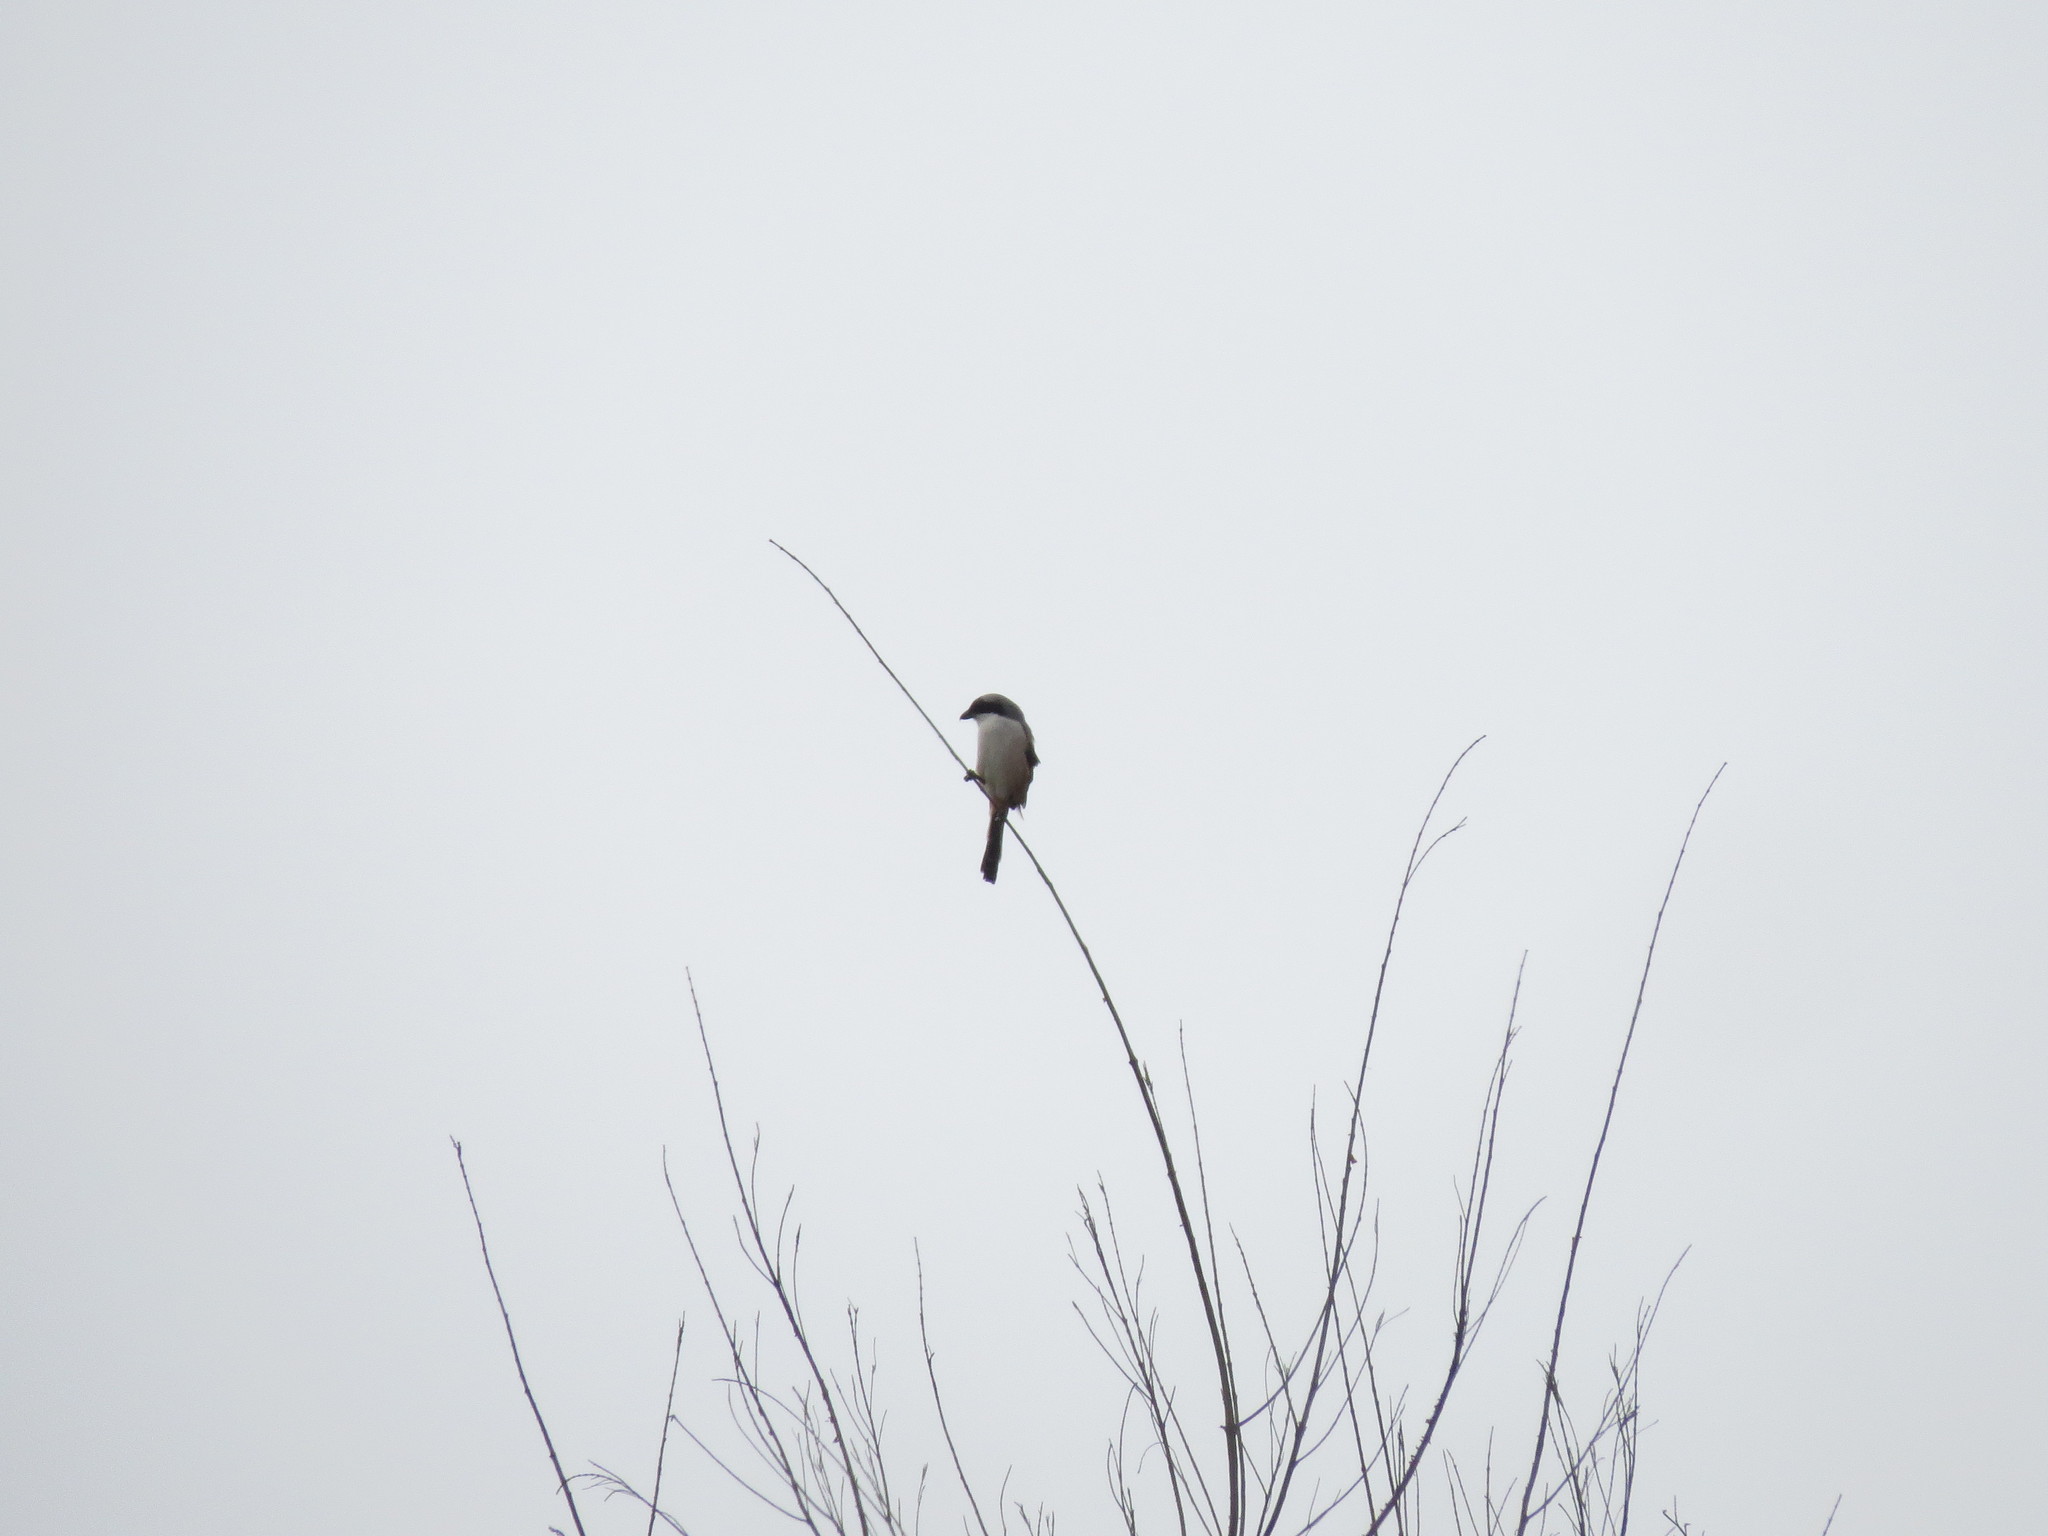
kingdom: Animalia
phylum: Chordata
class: Aves
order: Passeriformes
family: Laniidae
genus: Lanius
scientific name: Lanius schach
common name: Long-tailed shrike
